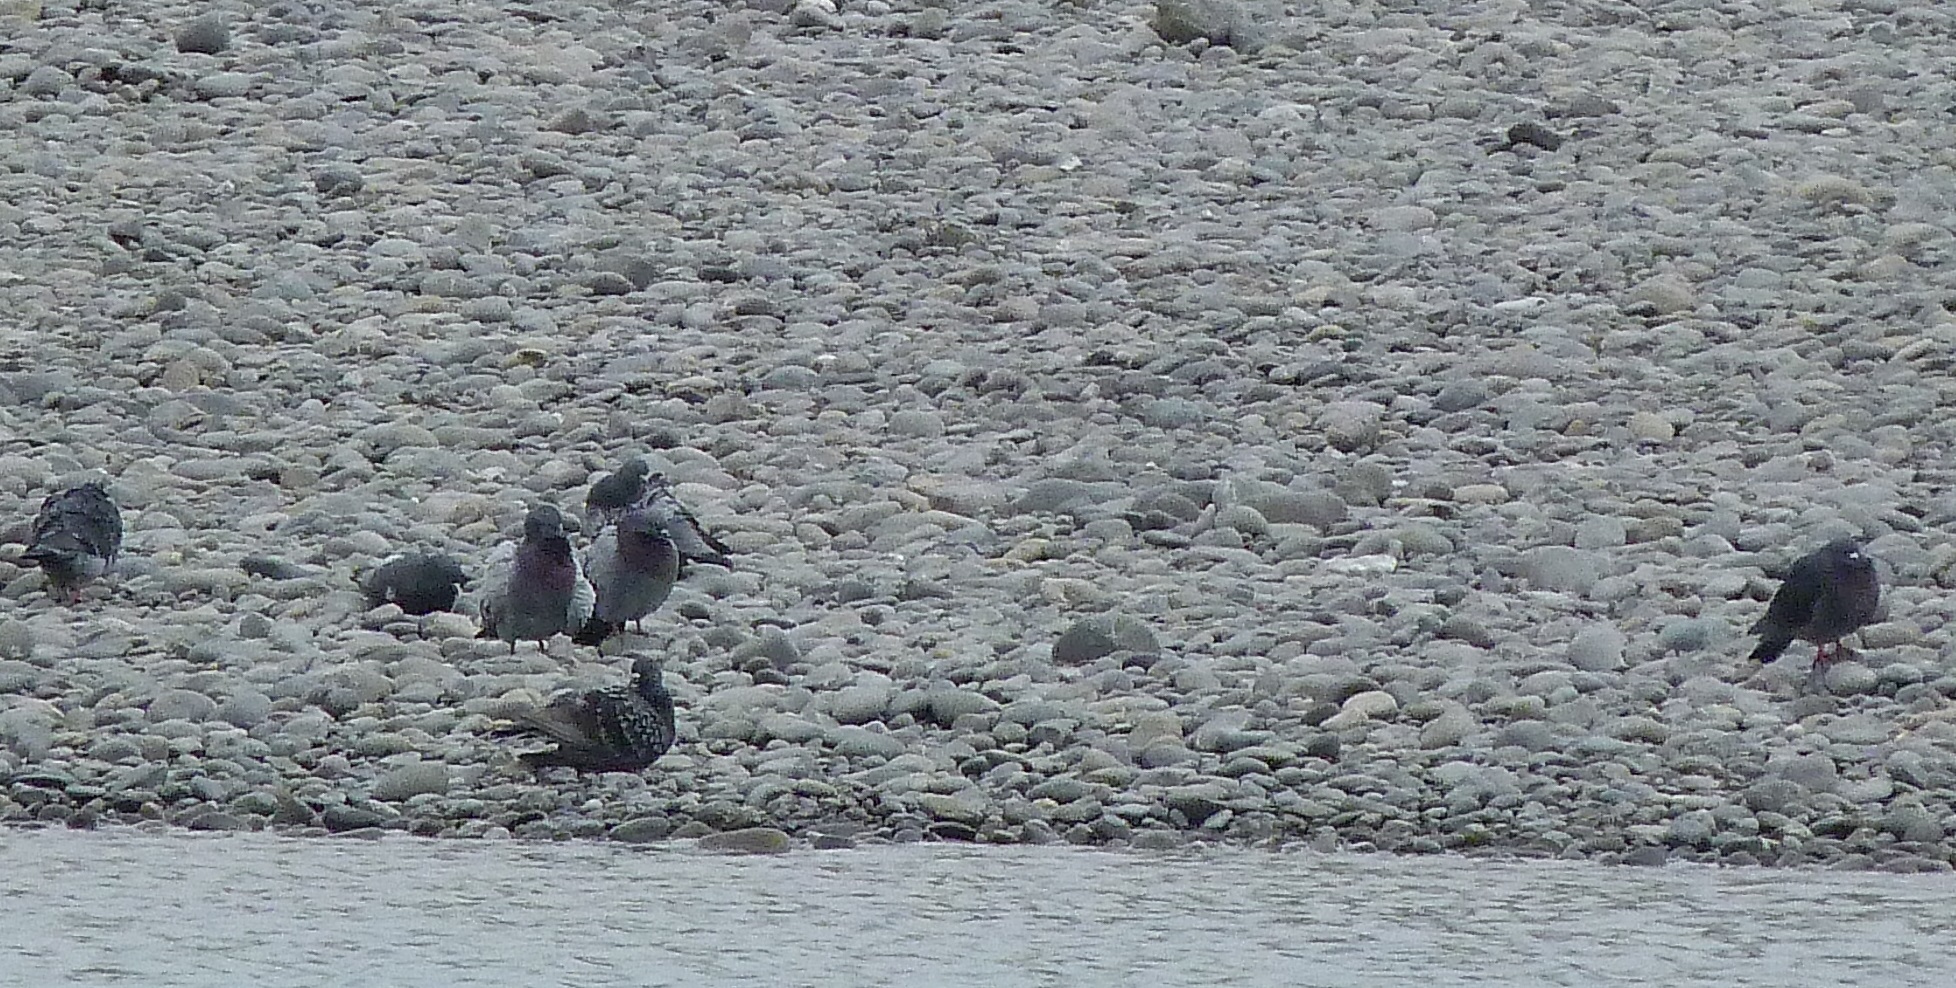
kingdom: Animalia
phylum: Chordata
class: Aves
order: Columbiformes
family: Columbidae
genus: Columba
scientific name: Columba livia
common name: Rock pigeon
